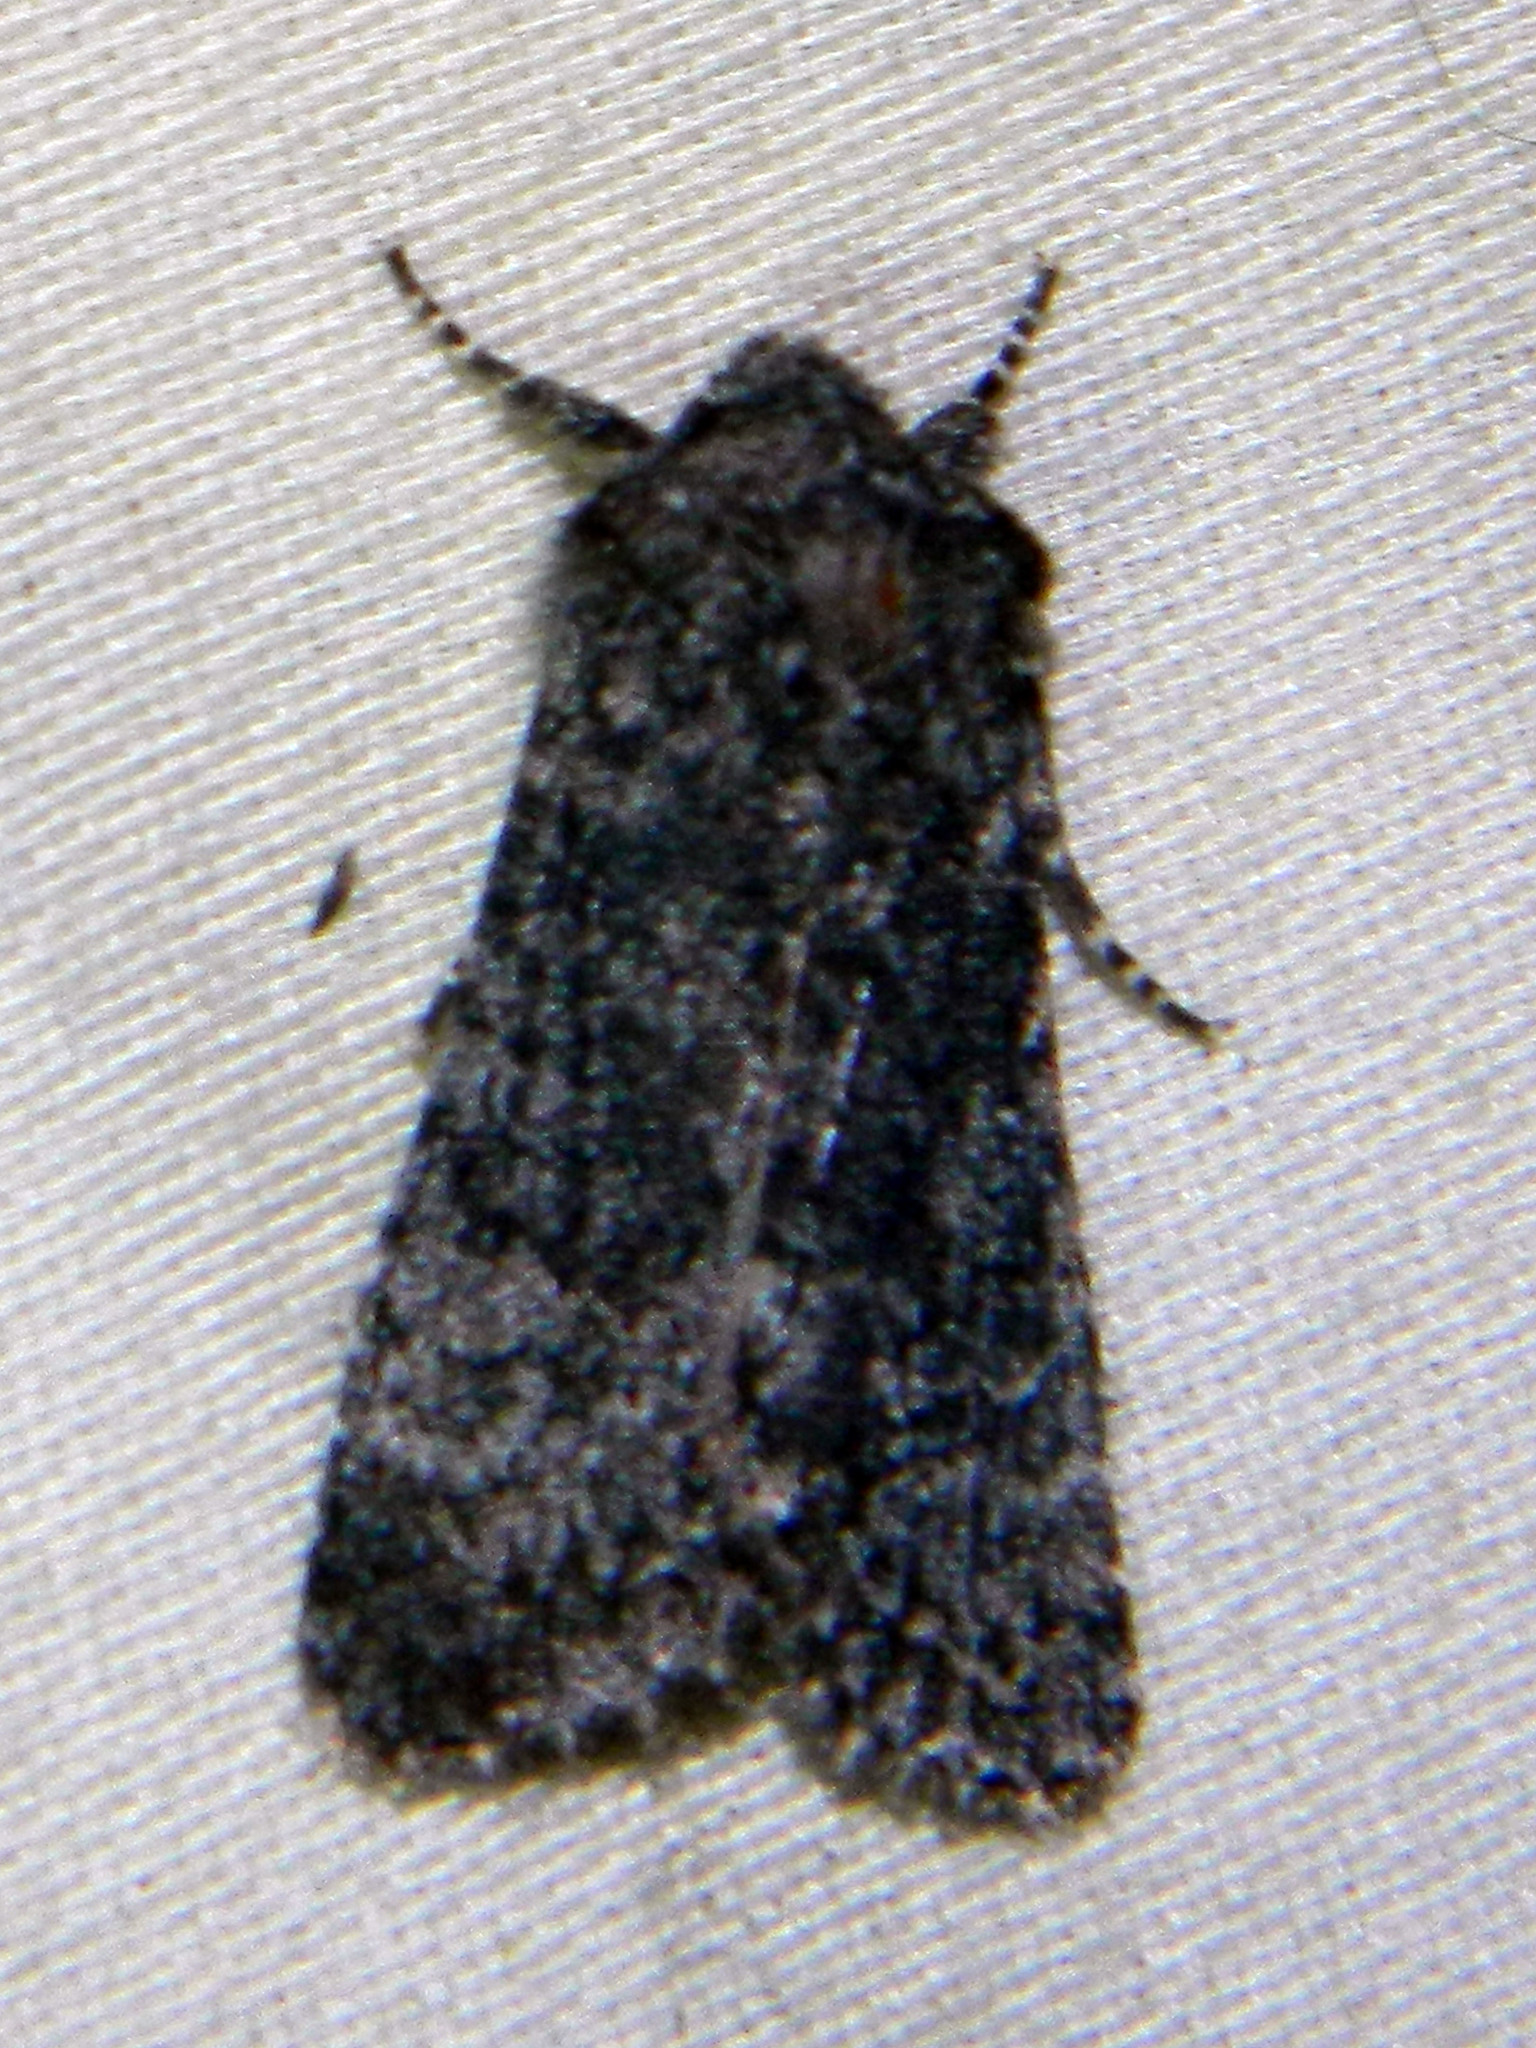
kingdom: Animalia
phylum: Arthropoda
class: Insecta
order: Lepidoptera
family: Noctuidae
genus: Egira
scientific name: Egira dolosa
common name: Lined black aspen cat.
